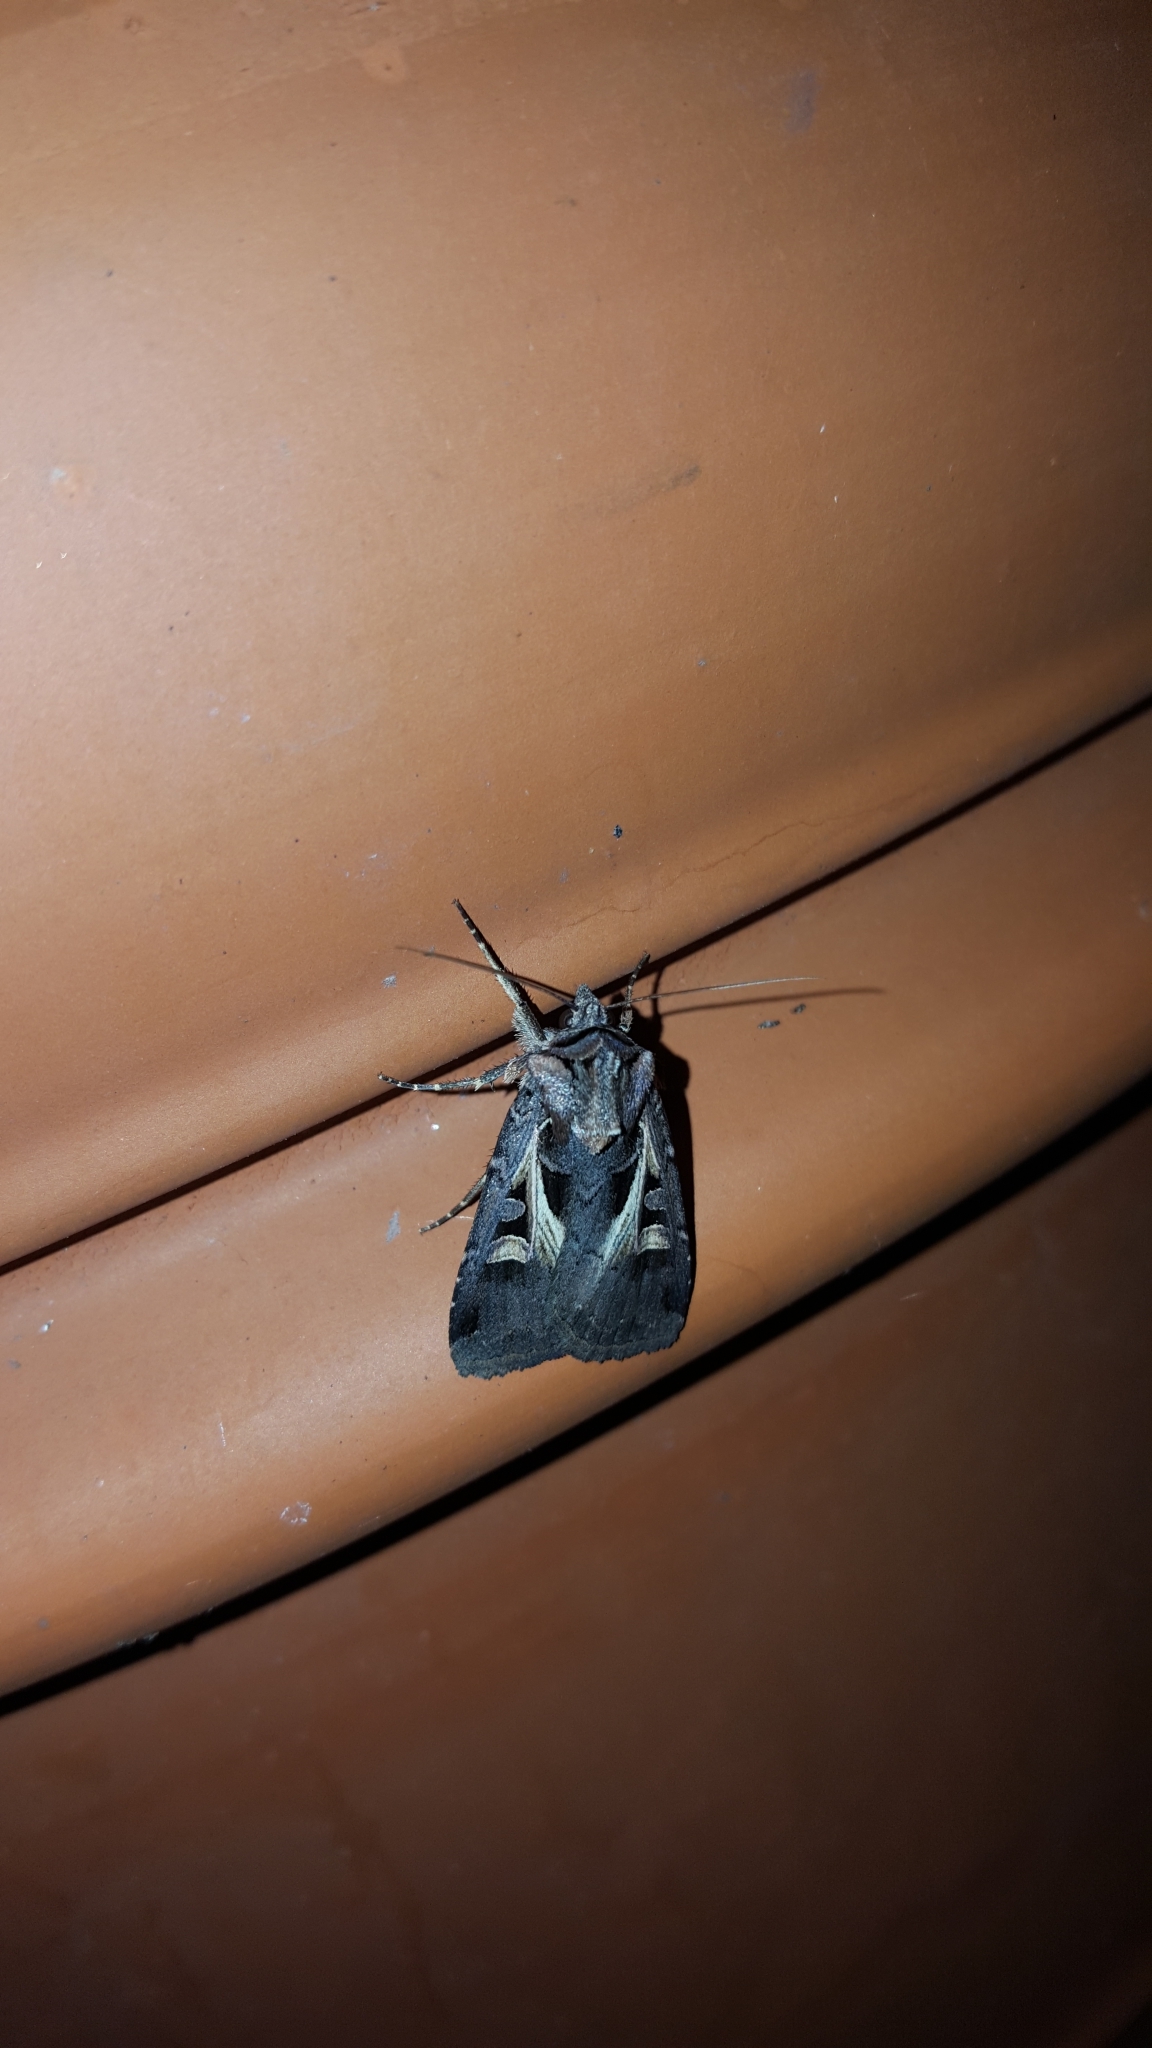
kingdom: Animalia
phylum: Arthropoda
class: Insecta
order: Lepidoptera
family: Noctuidae
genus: Feltia
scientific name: Feltia jaculifera
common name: Dingy cutworm moth
